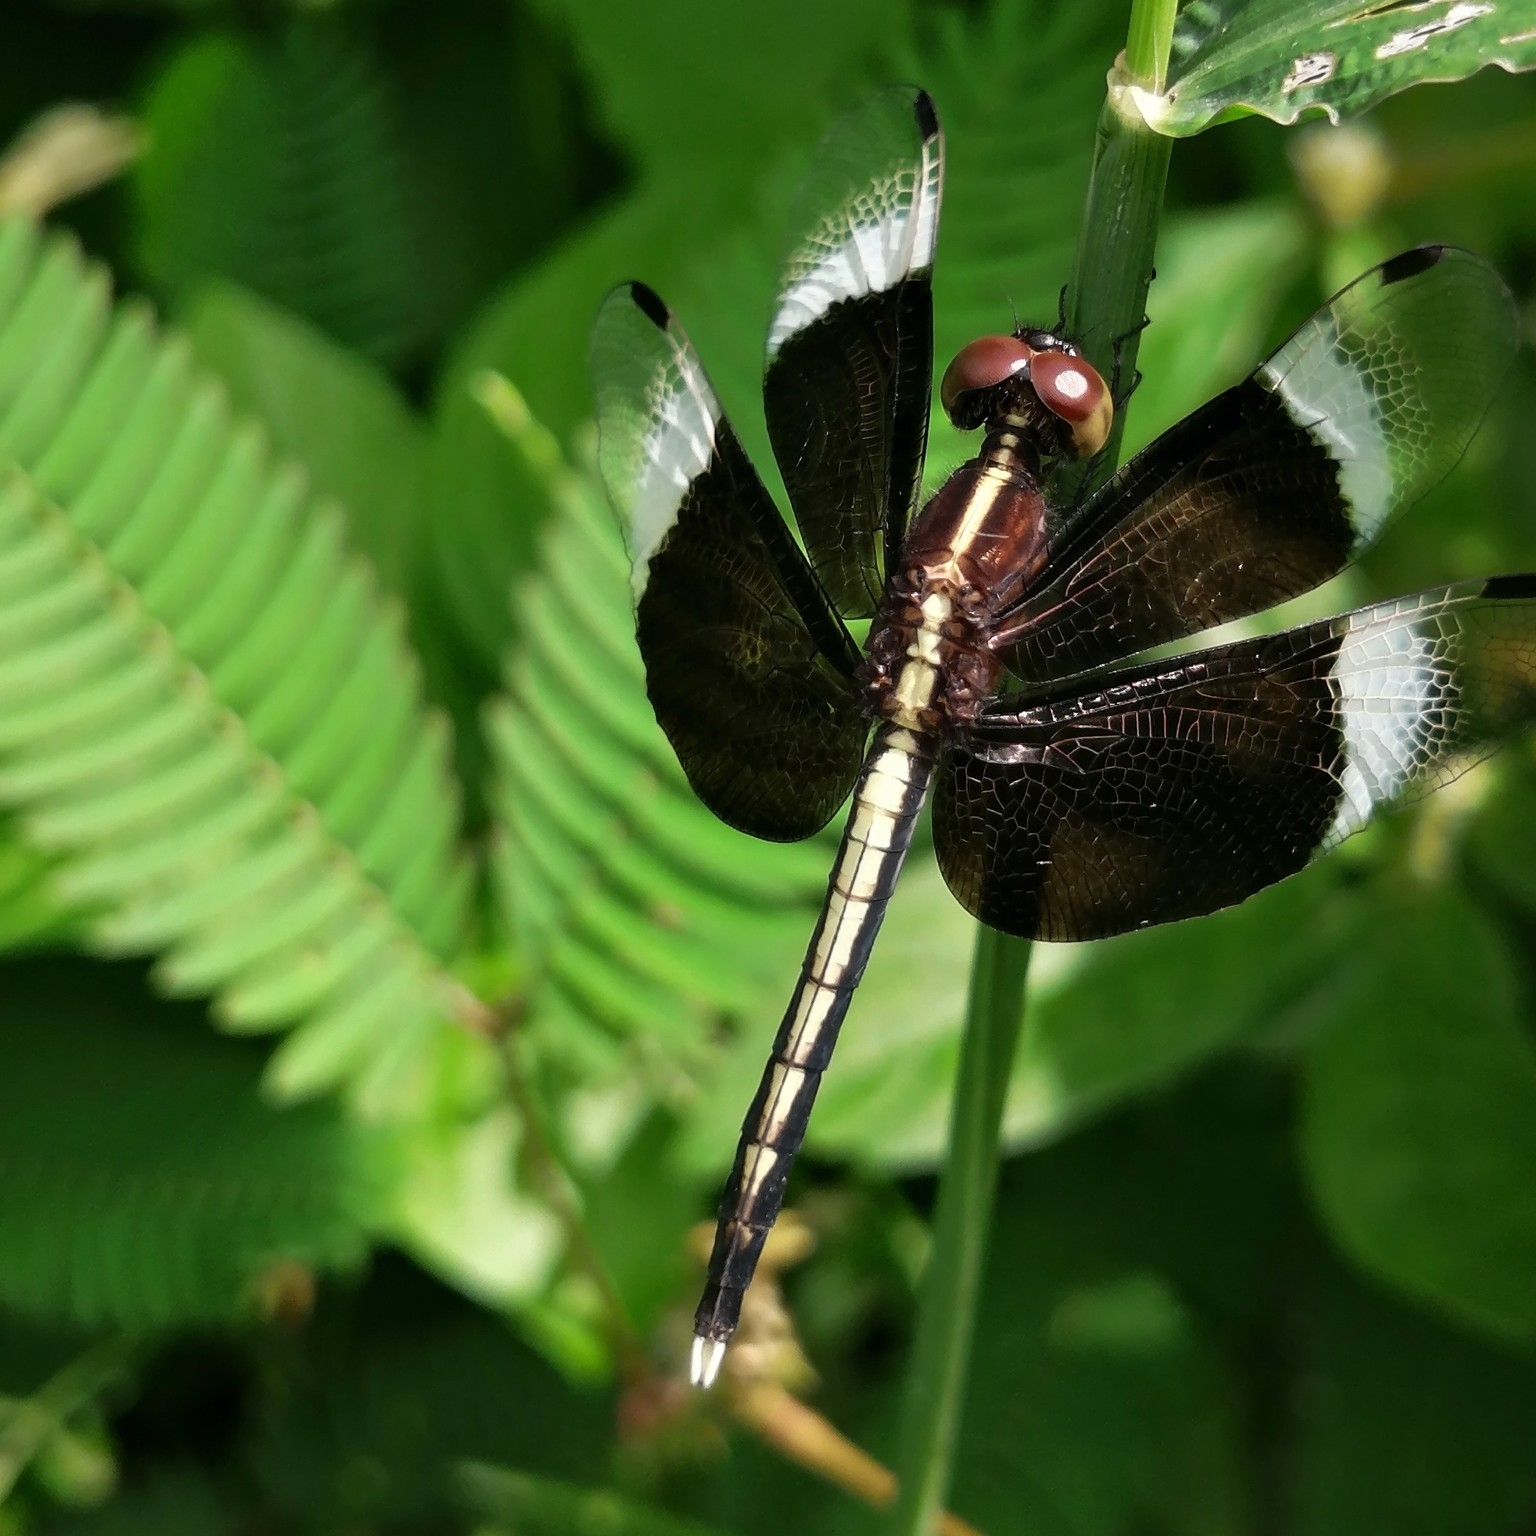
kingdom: Animalia
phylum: Arthropoda
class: Insecta
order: Odonata
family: Libellulidae
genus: Neurothemis
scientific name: Neurothemis tullia
